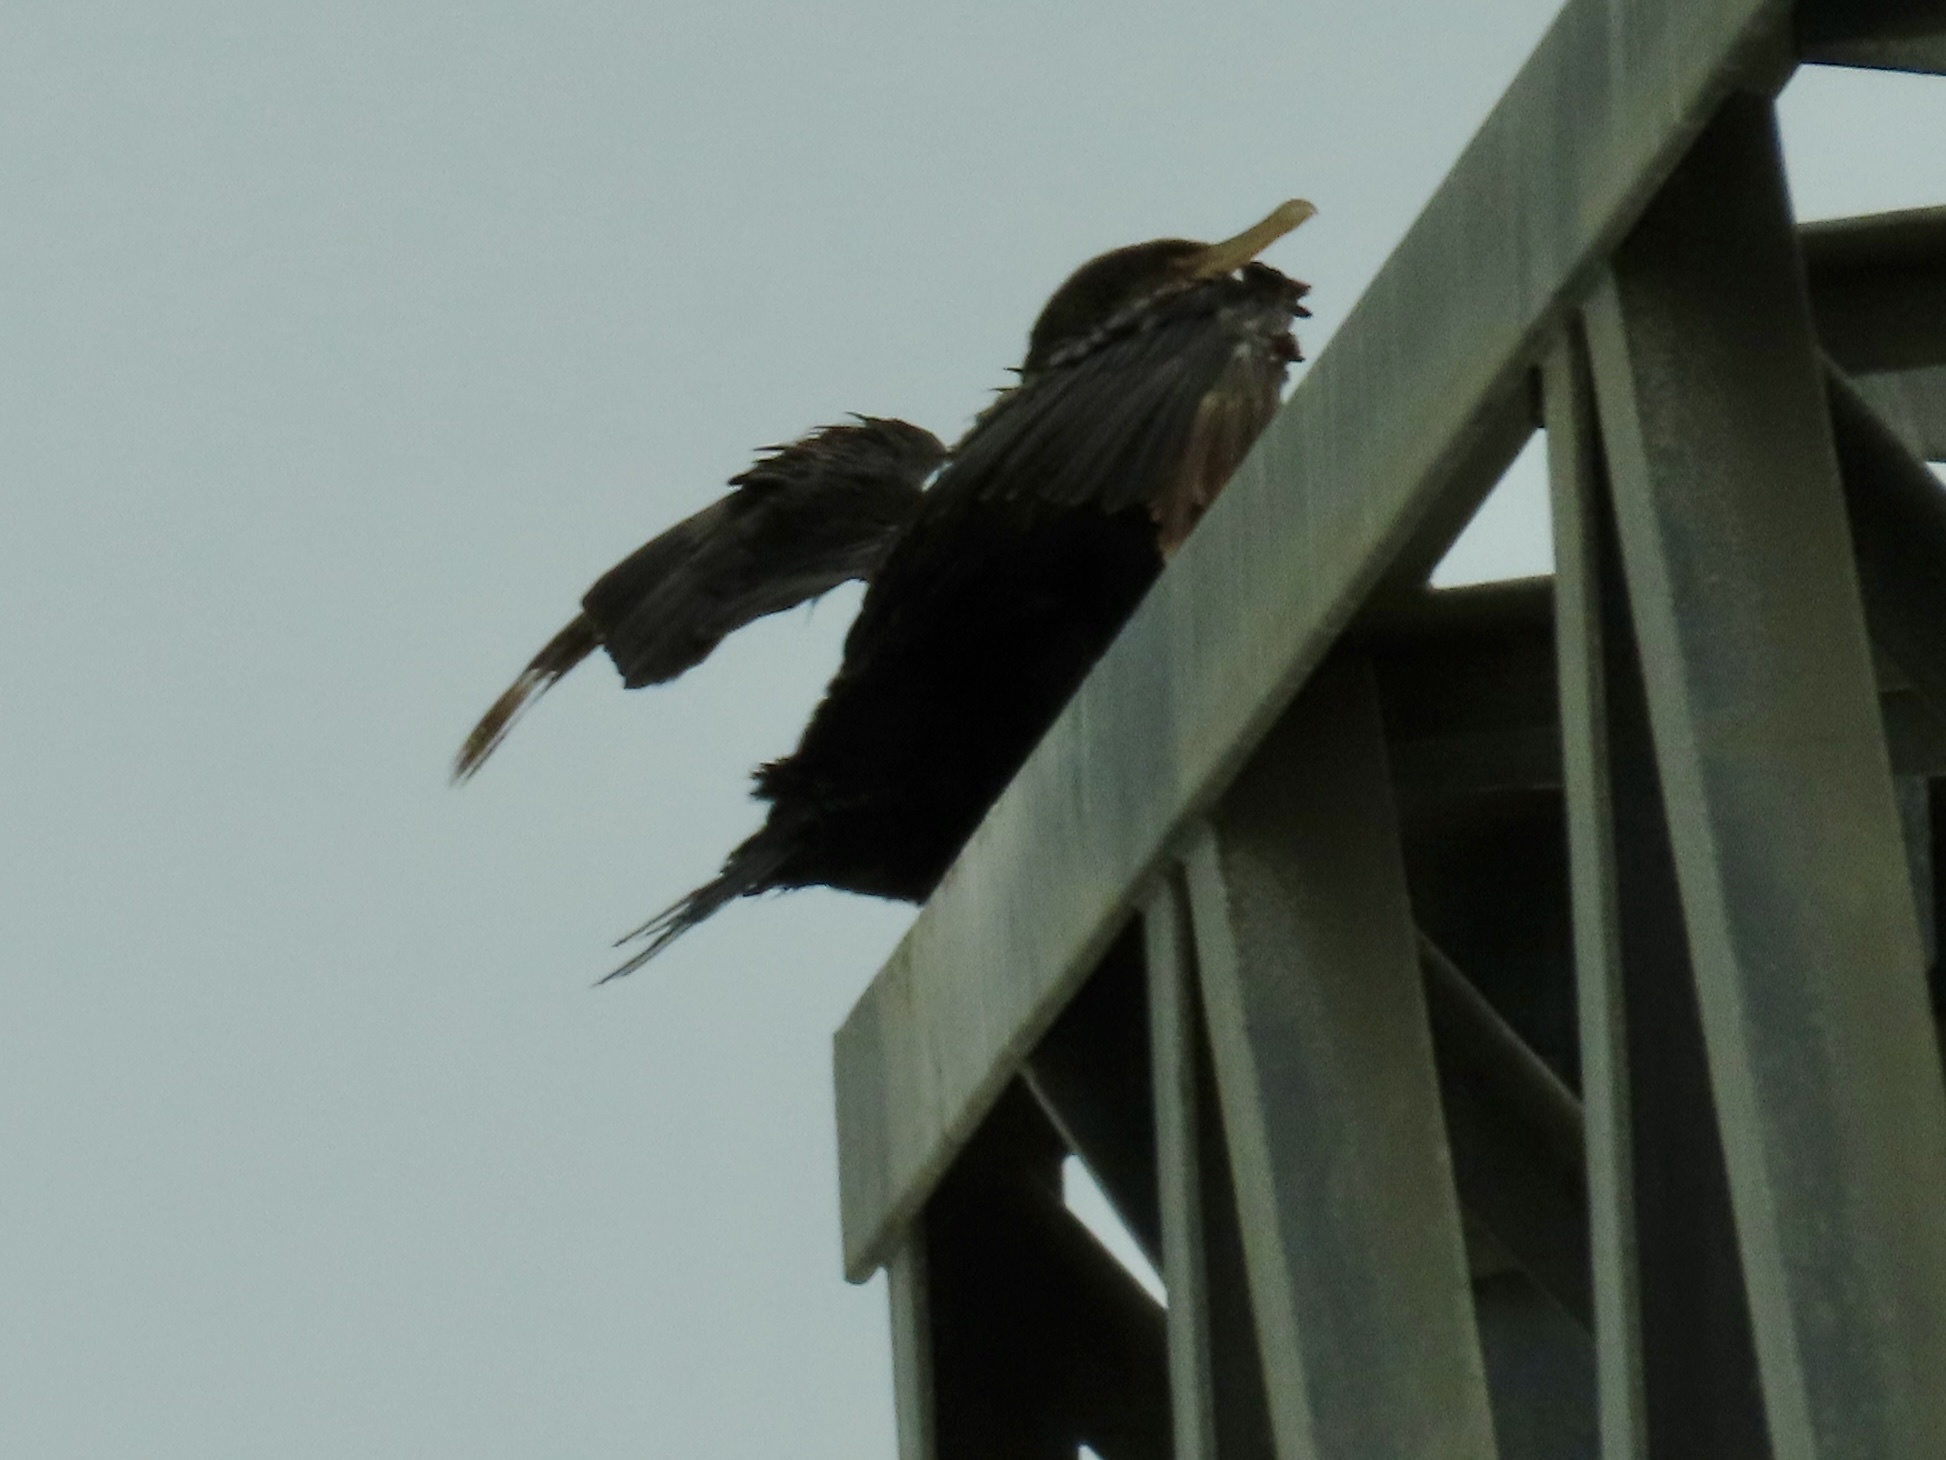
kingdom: Animalia
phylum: Chordata
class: Aves
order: Suliformes
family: Phalacrocoracidae
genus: Phalacrocorax
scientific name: Phalacrocorax auritus
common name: Double-crested cormorant
